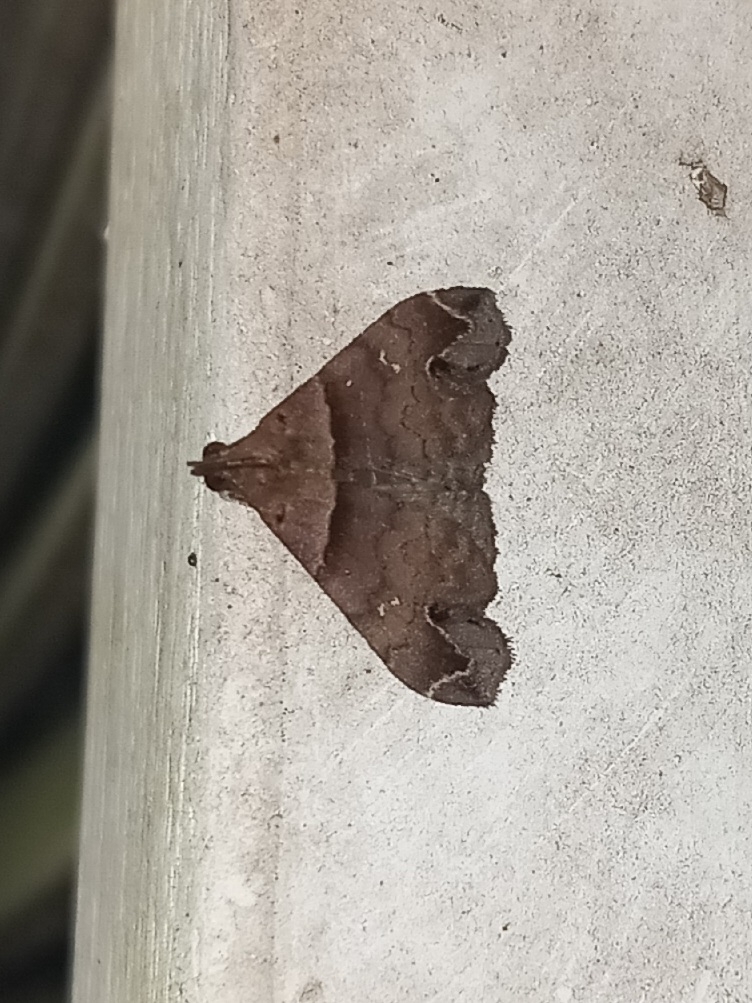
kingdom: Animalia
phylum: Arthropoda
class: Insecta
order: Lepidoptera
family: Erebidae
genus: Lascoria
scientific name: Lascoria ambigualis
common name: Ambiguous moth
